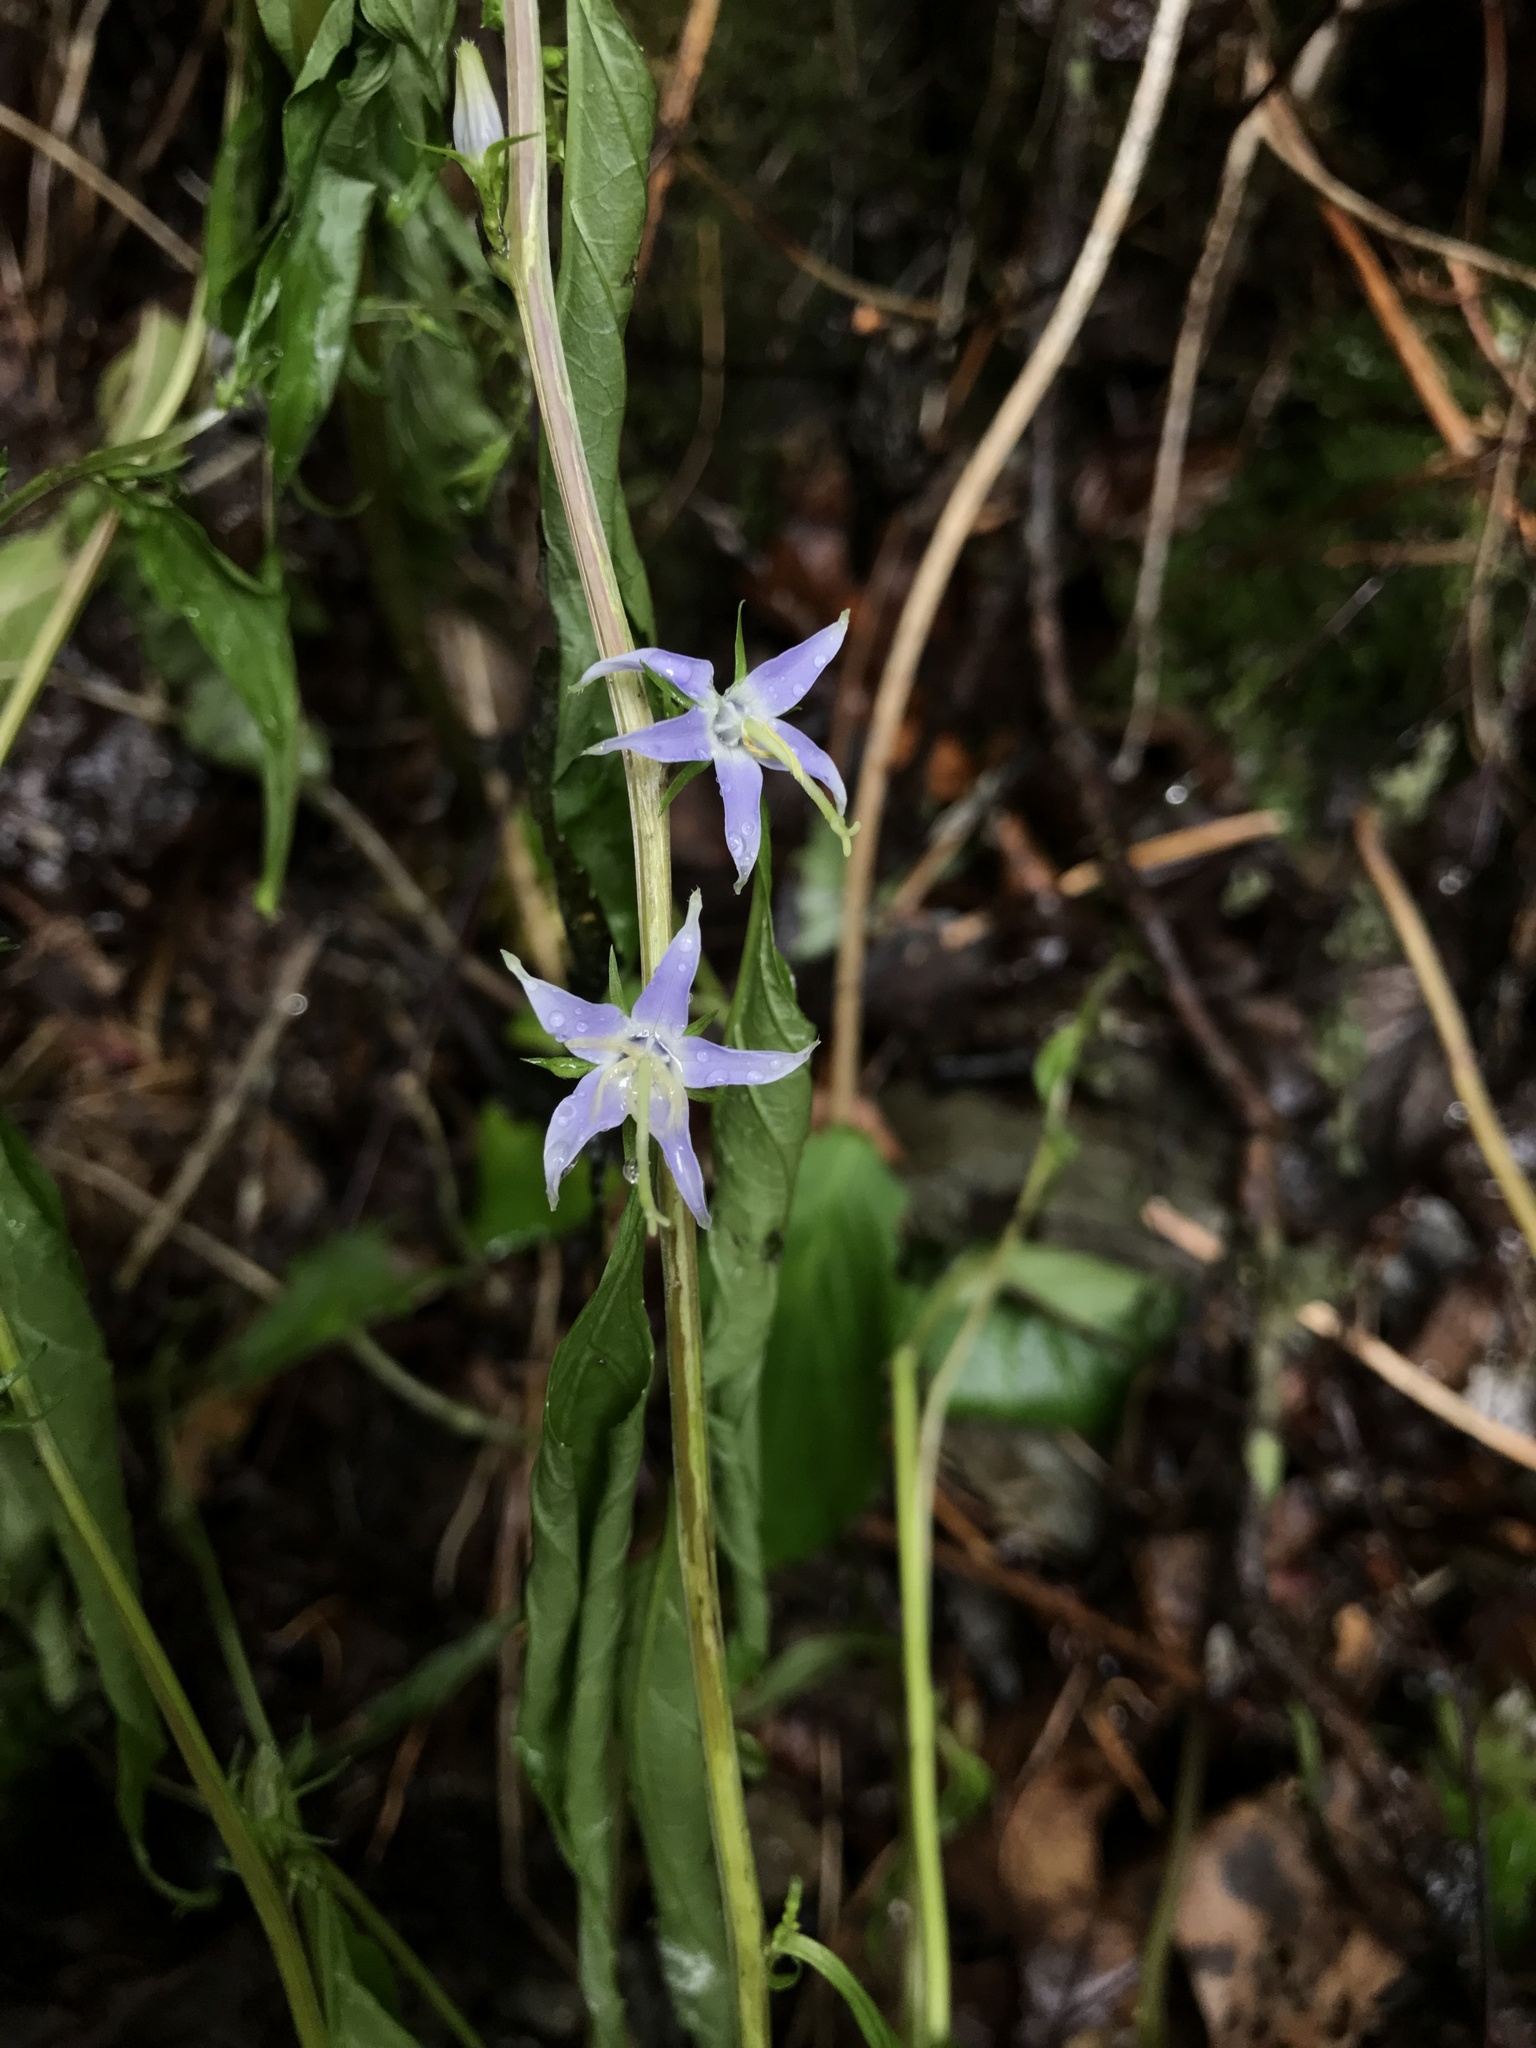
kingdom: Plantae
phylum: Tracheophyta
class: Magnoliopsida
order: Asterales
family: Campanulaceae
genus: Campanulastrum
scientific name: Campanulastrum americanum
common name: American bellflower
